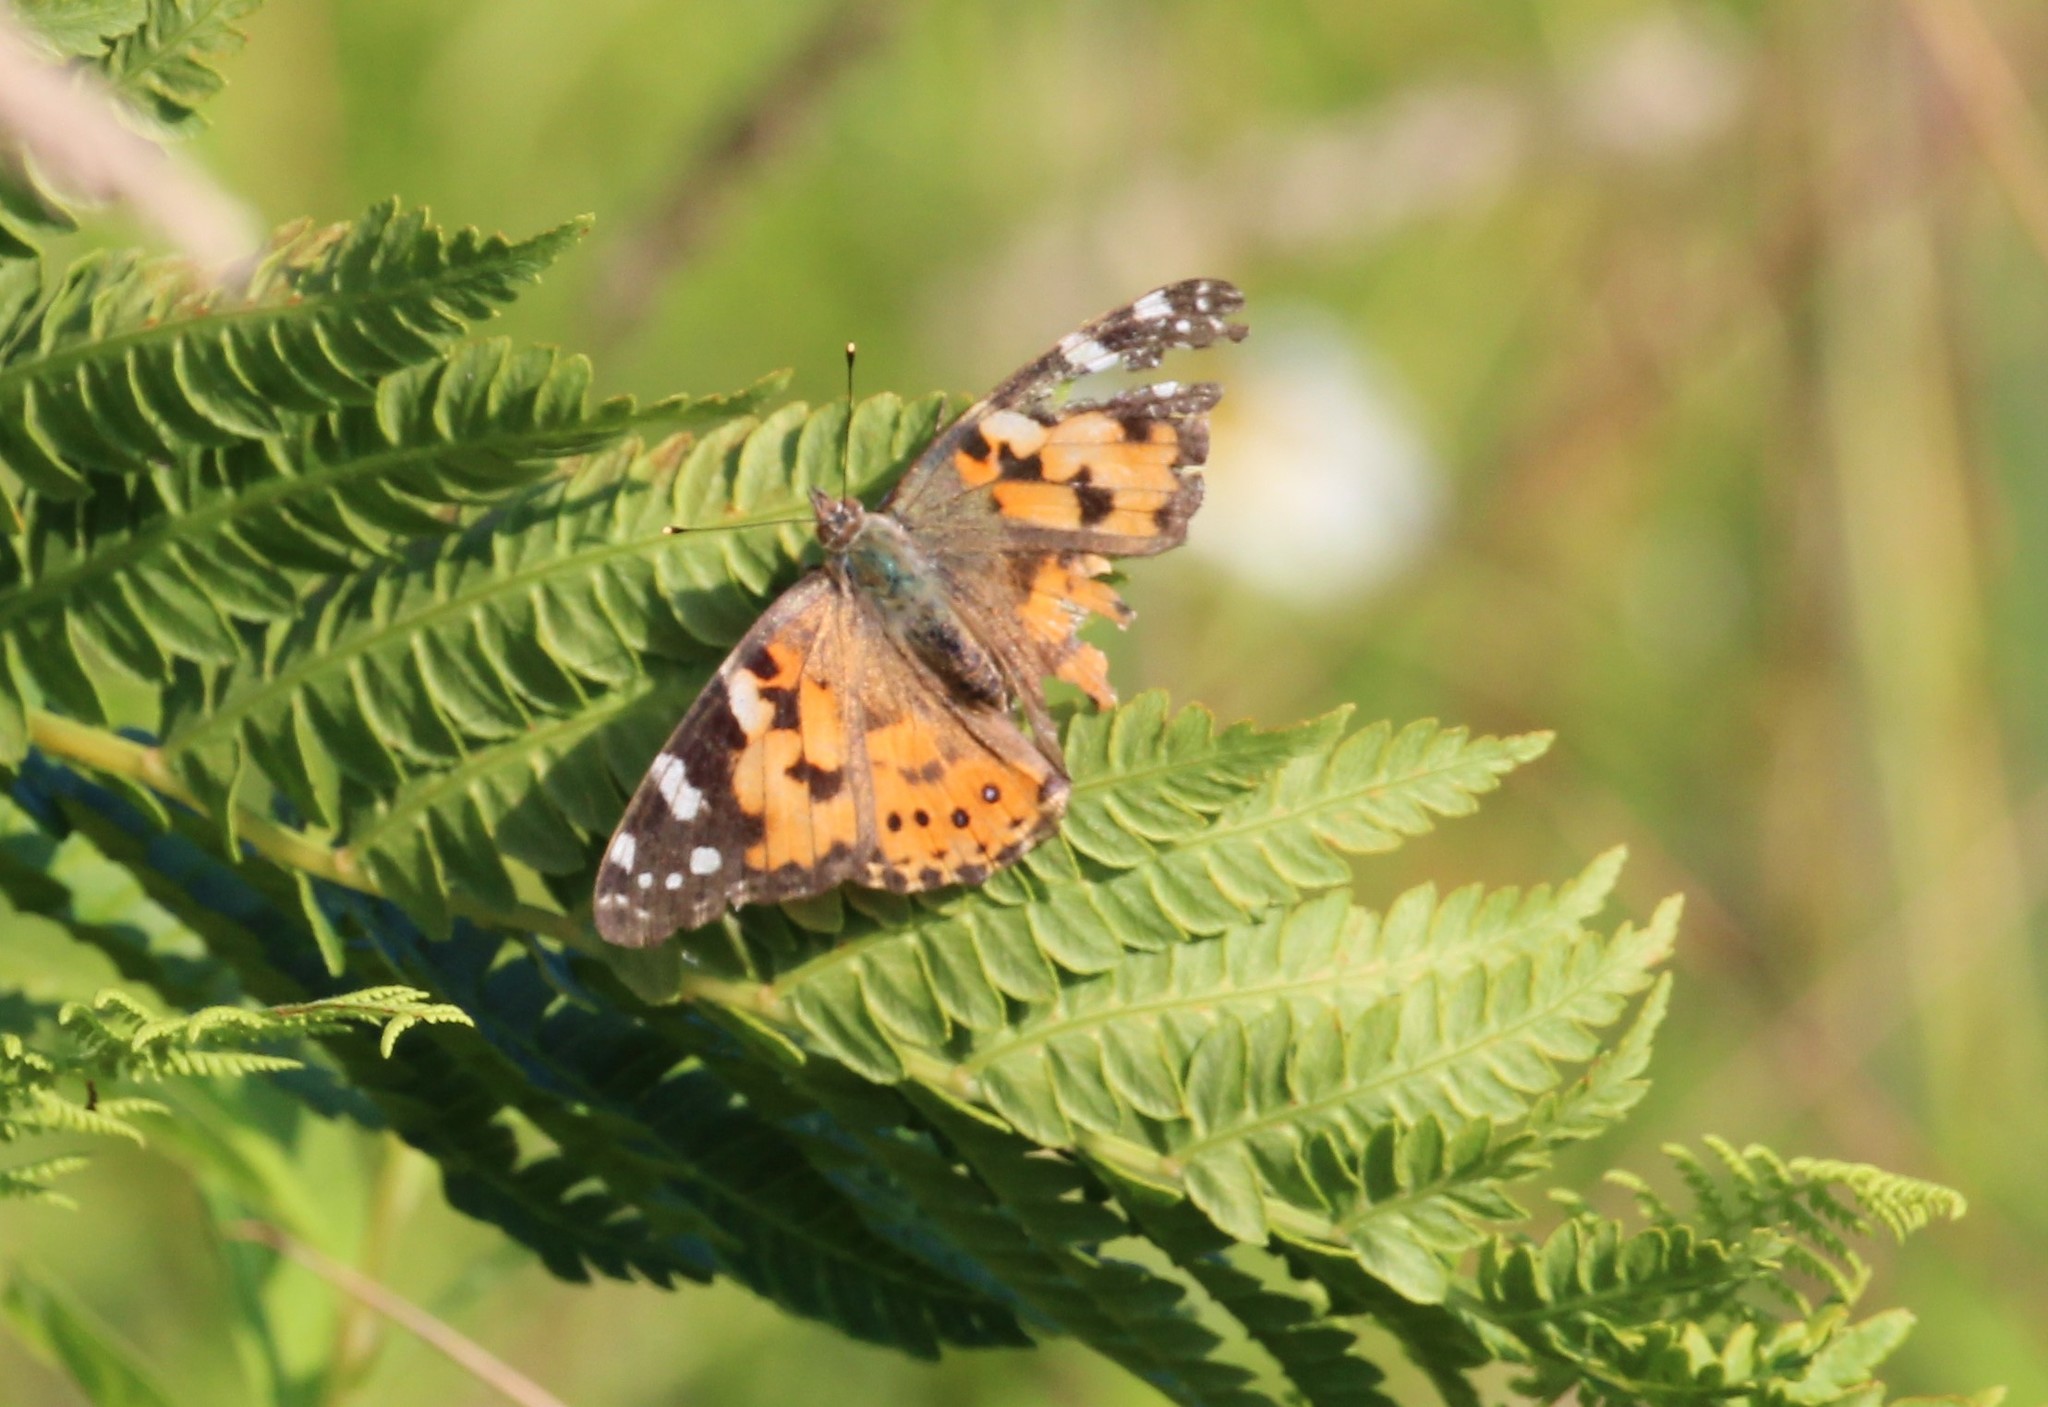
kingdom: Animalia
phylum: Arthropoda
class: Insecta
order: Lepidoptera
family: Nymphalidae
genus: Vanessa
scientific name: Vanessa cardui
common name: Painted lady
